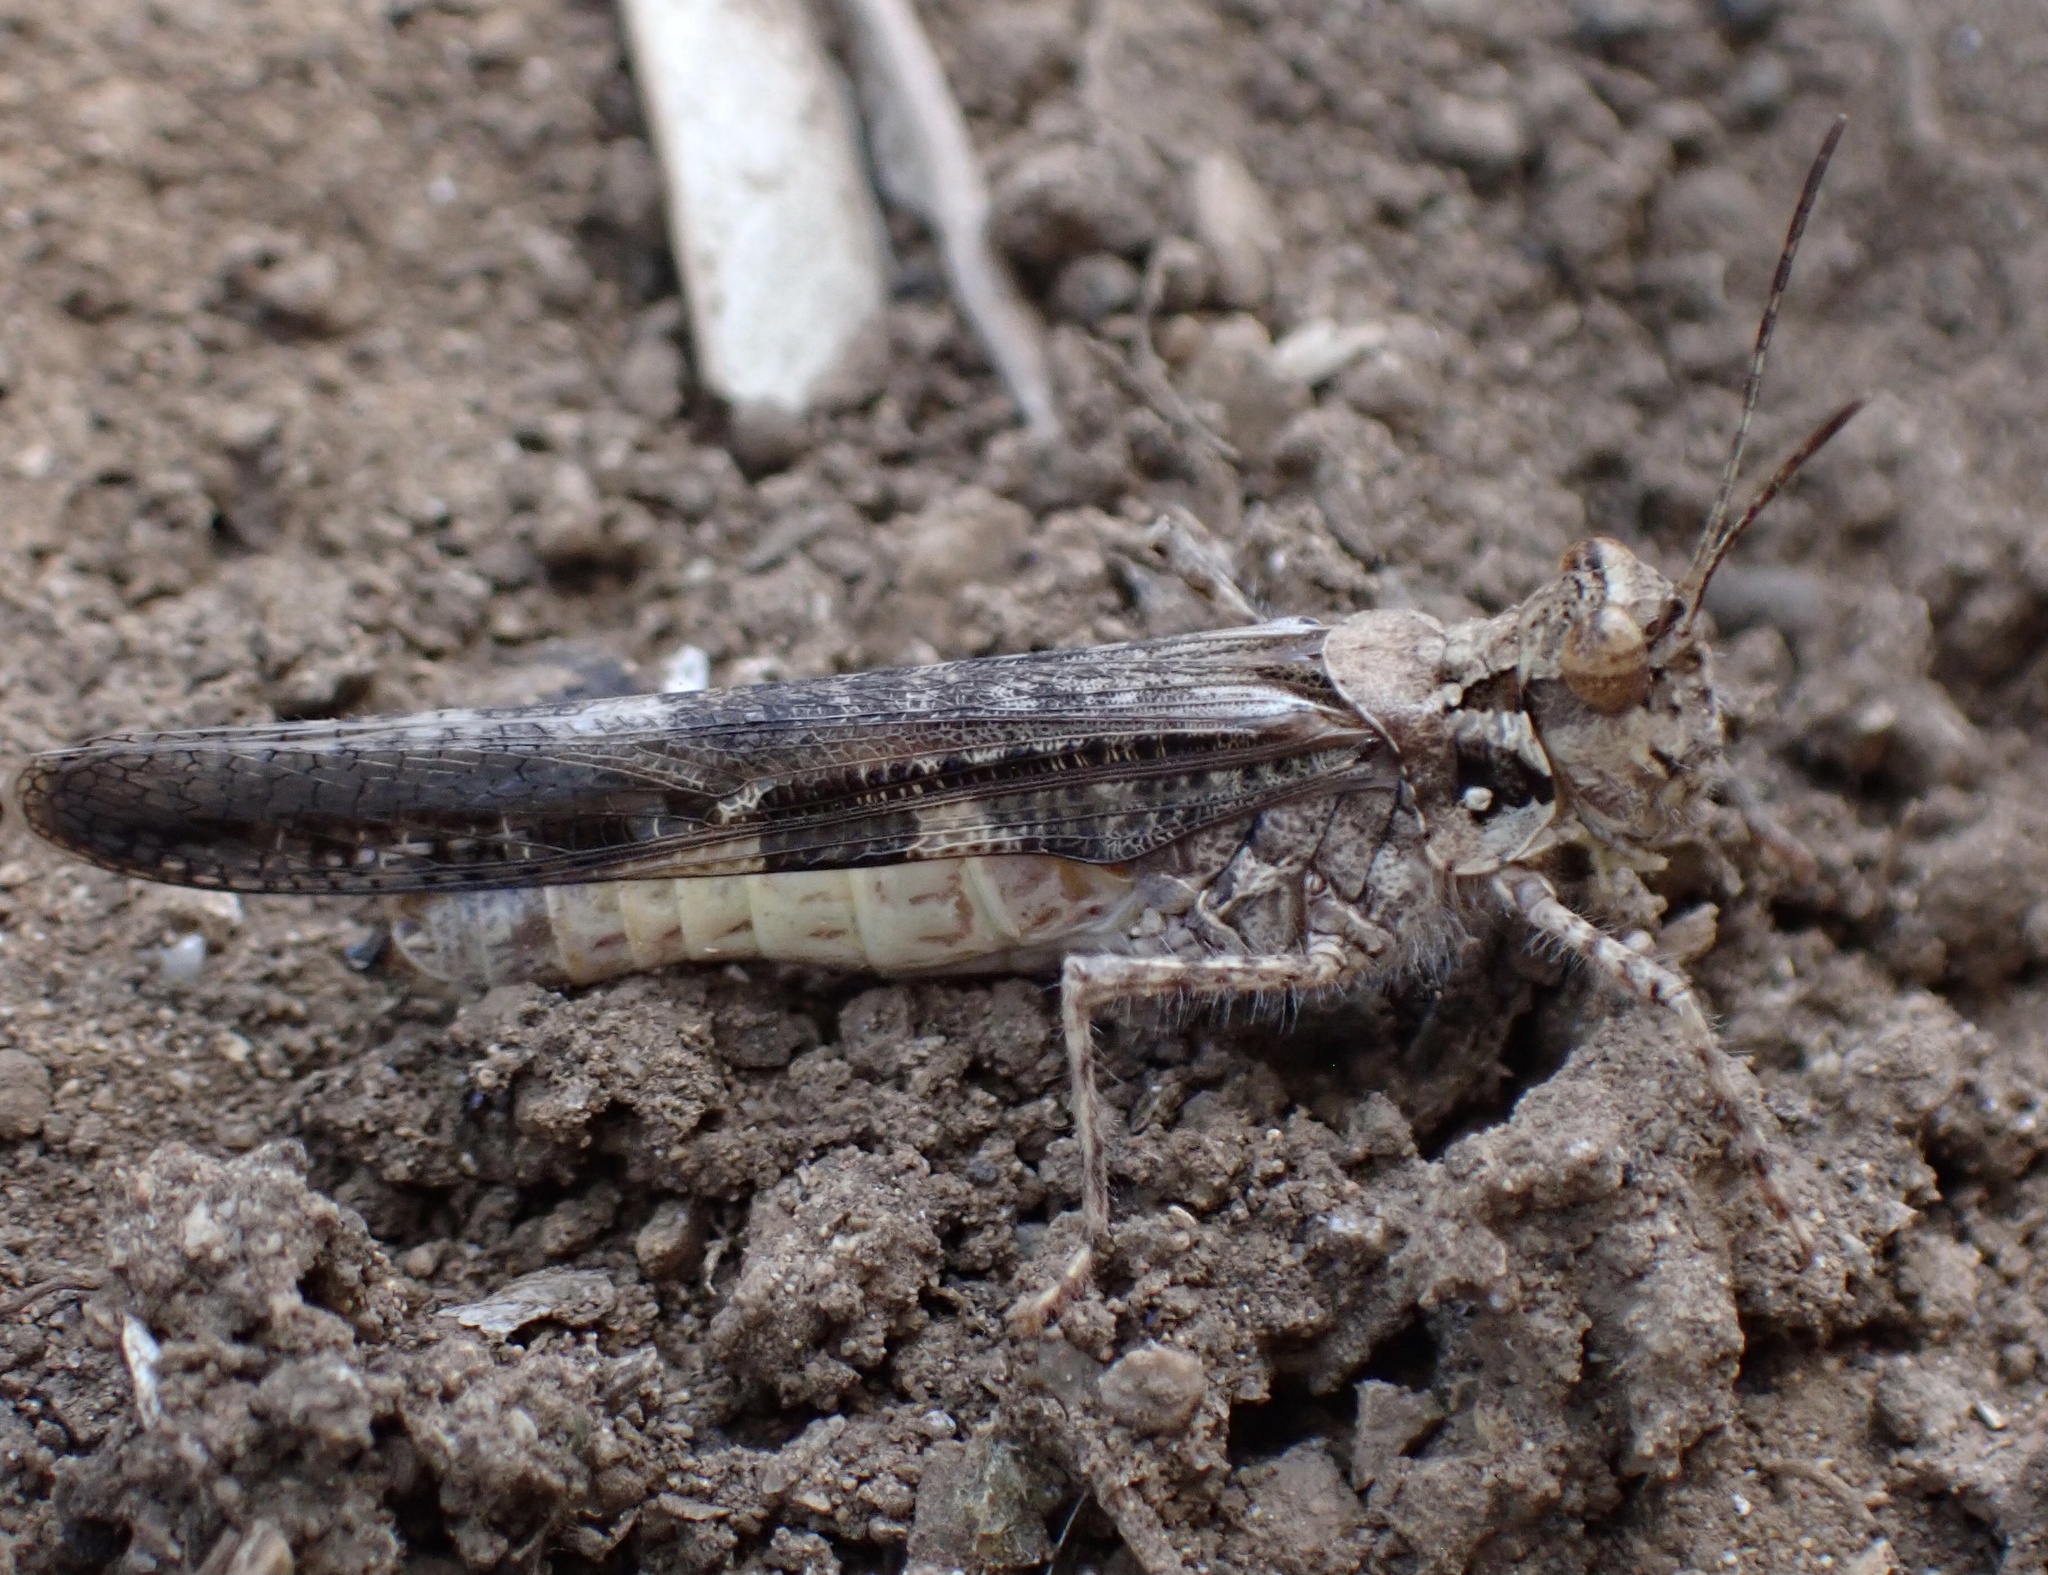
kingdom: Animalia
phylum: Arthropoda
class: Insecta
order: Orthoptera
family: Acrididae
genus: Acrotylus
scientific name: Acrotylus patruelis
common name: Slender burrowing grasshopper
